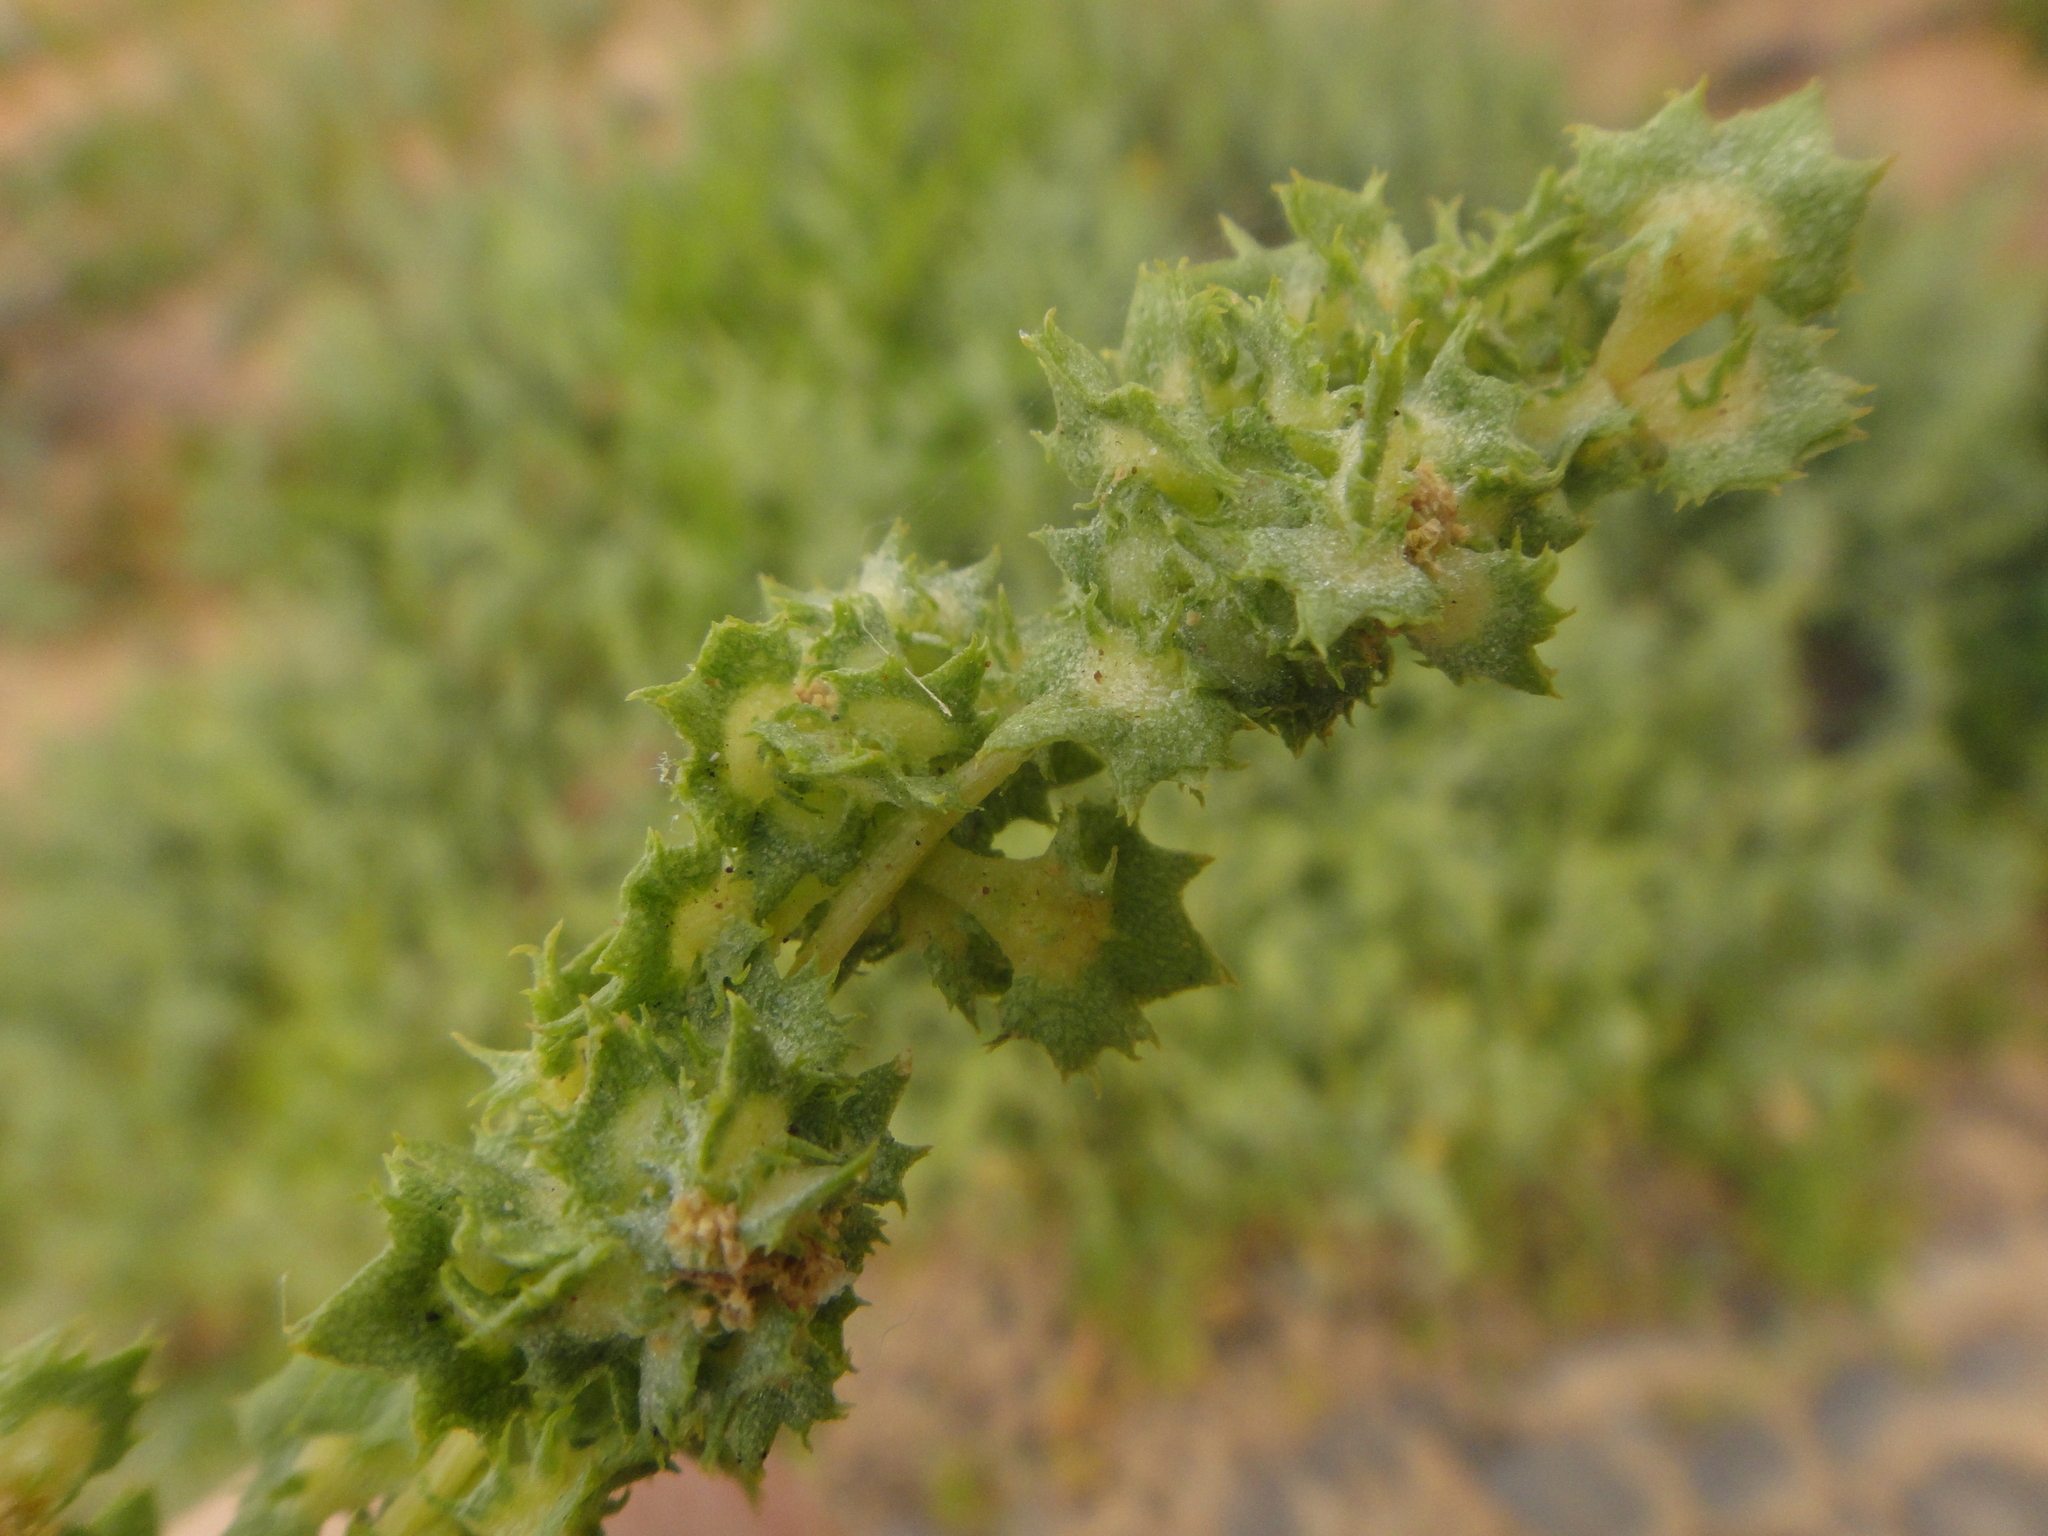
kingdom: Plantae
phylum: Tracheophyta
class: Magnoliopsida
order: Caryophyllales
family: Amaranthaceae
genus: Atriplex
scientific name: Atriplex semilunaris
